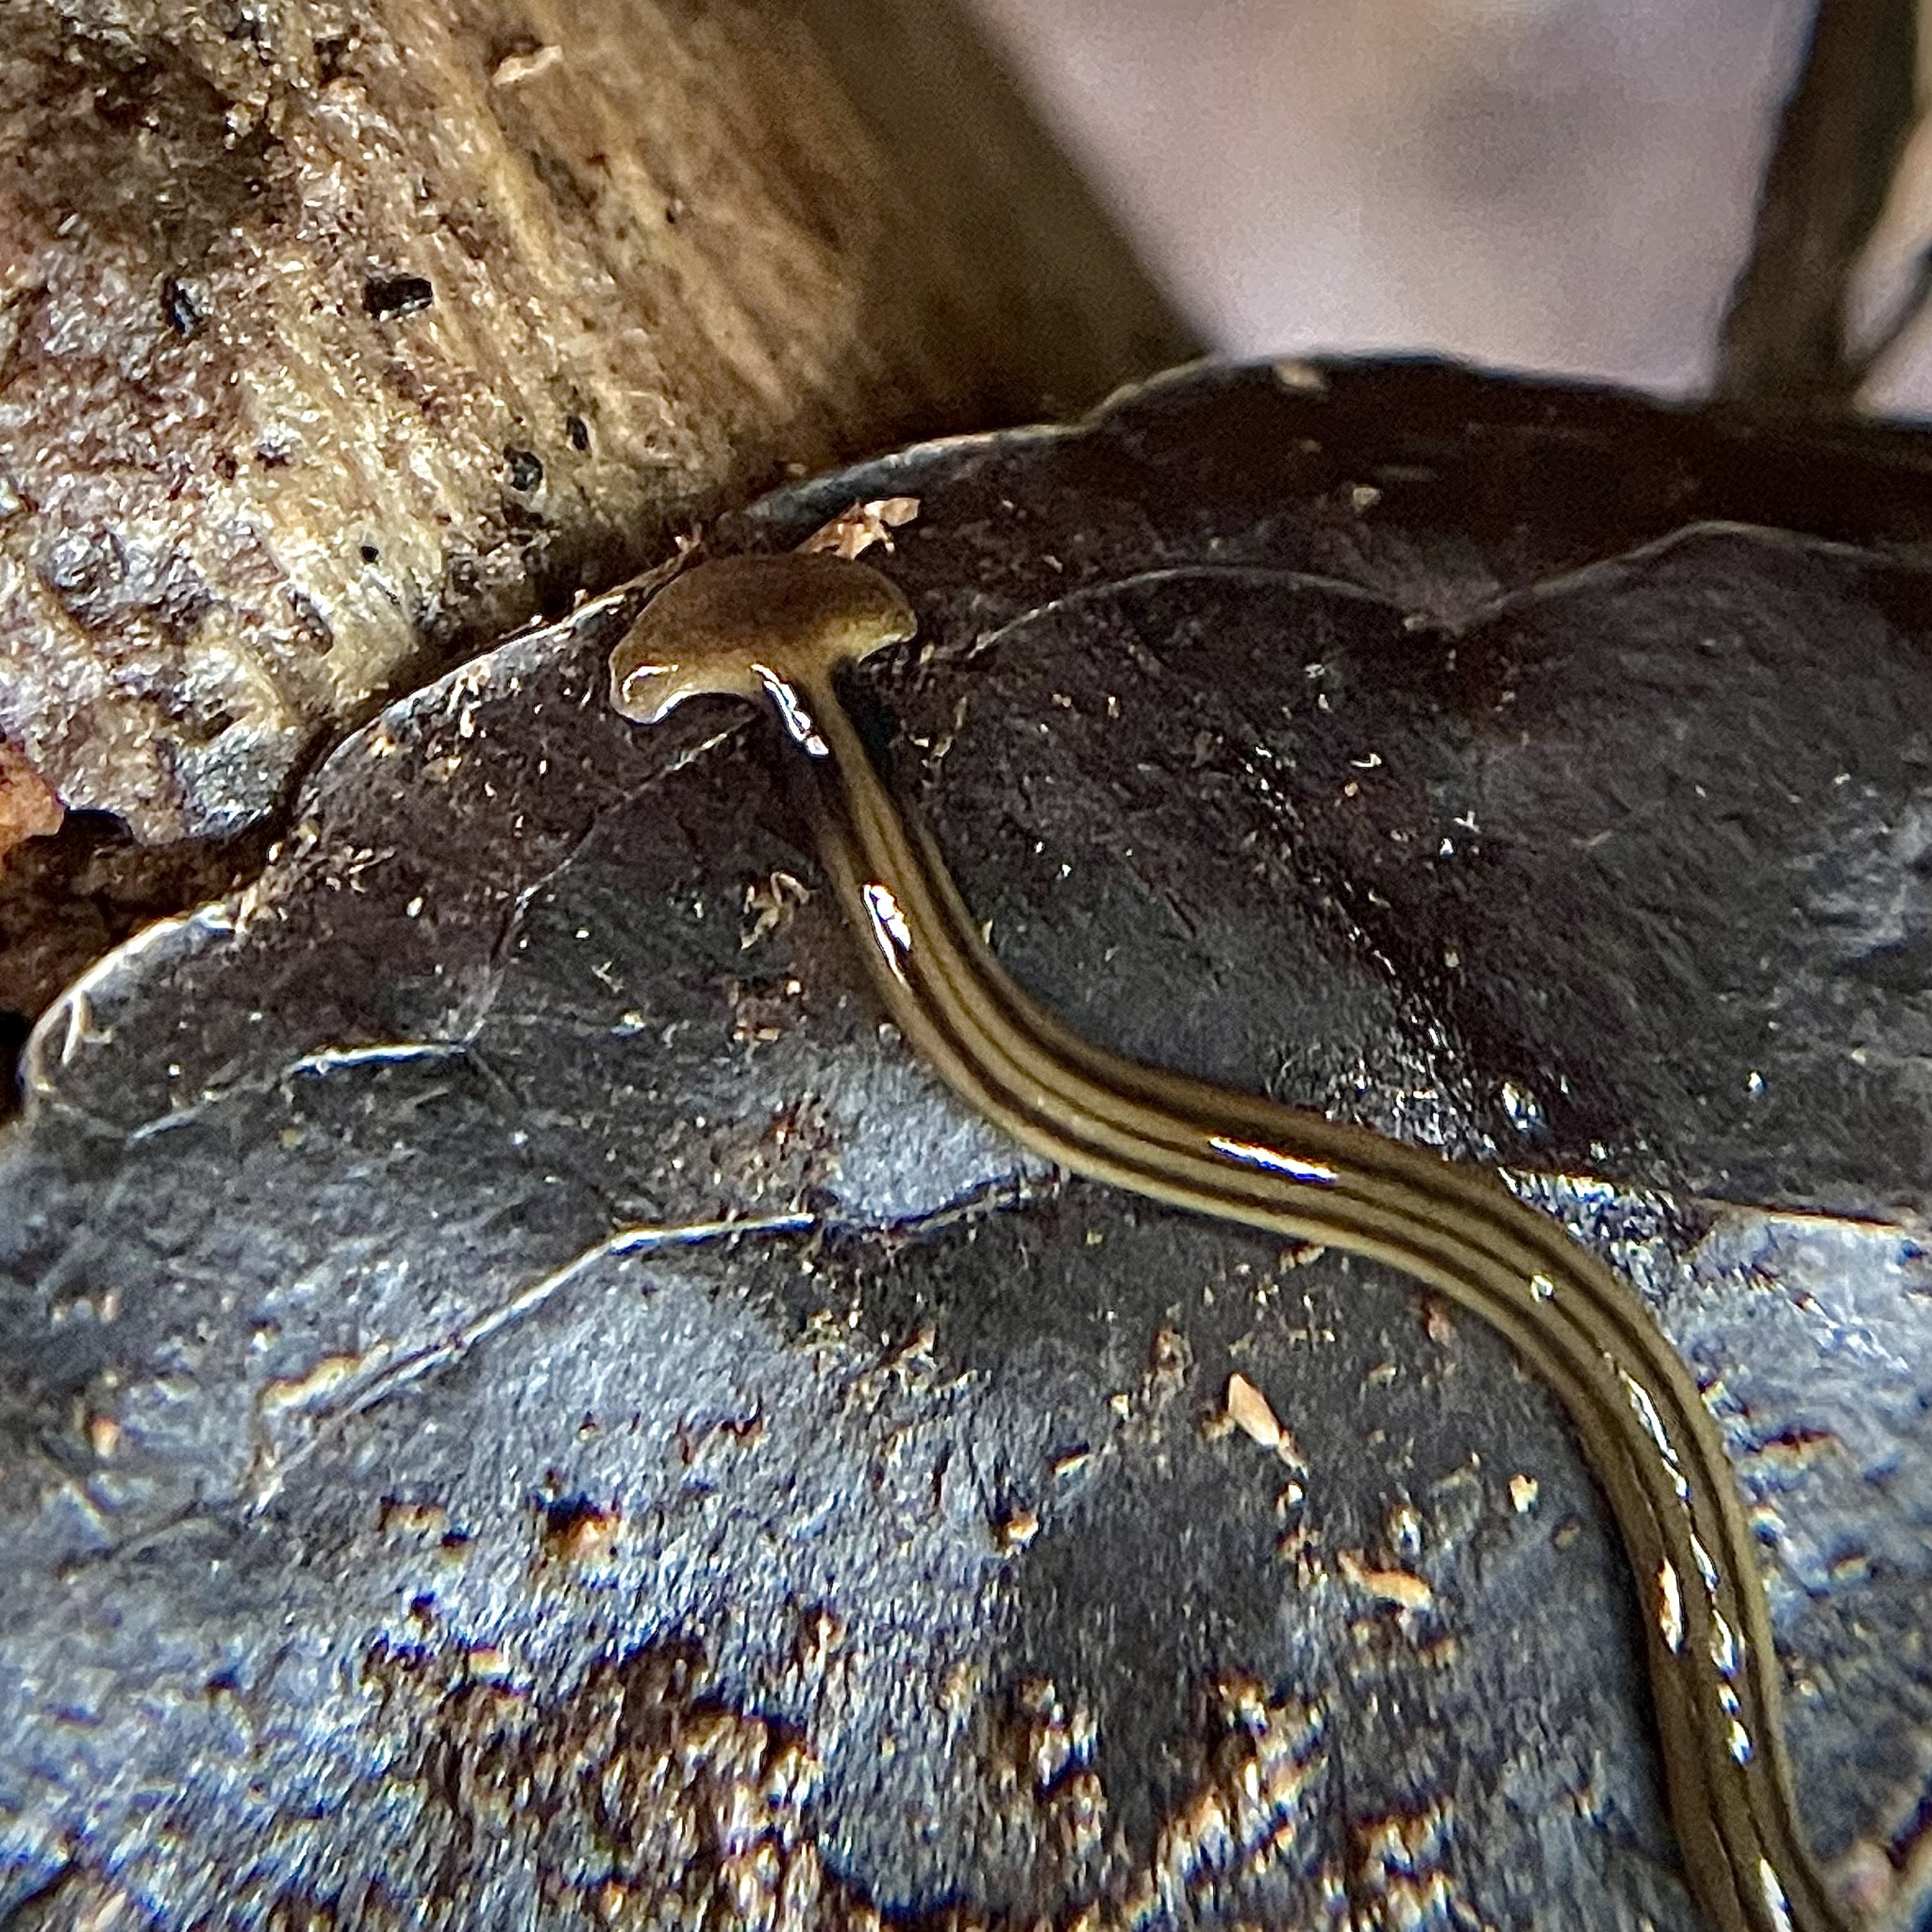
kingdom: Animalia
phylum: Platyhelminthes
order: Tricladida
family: Geoplanidae
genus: Bipalium
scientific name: Bipalium kewense
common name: Hammerhead flatworm
